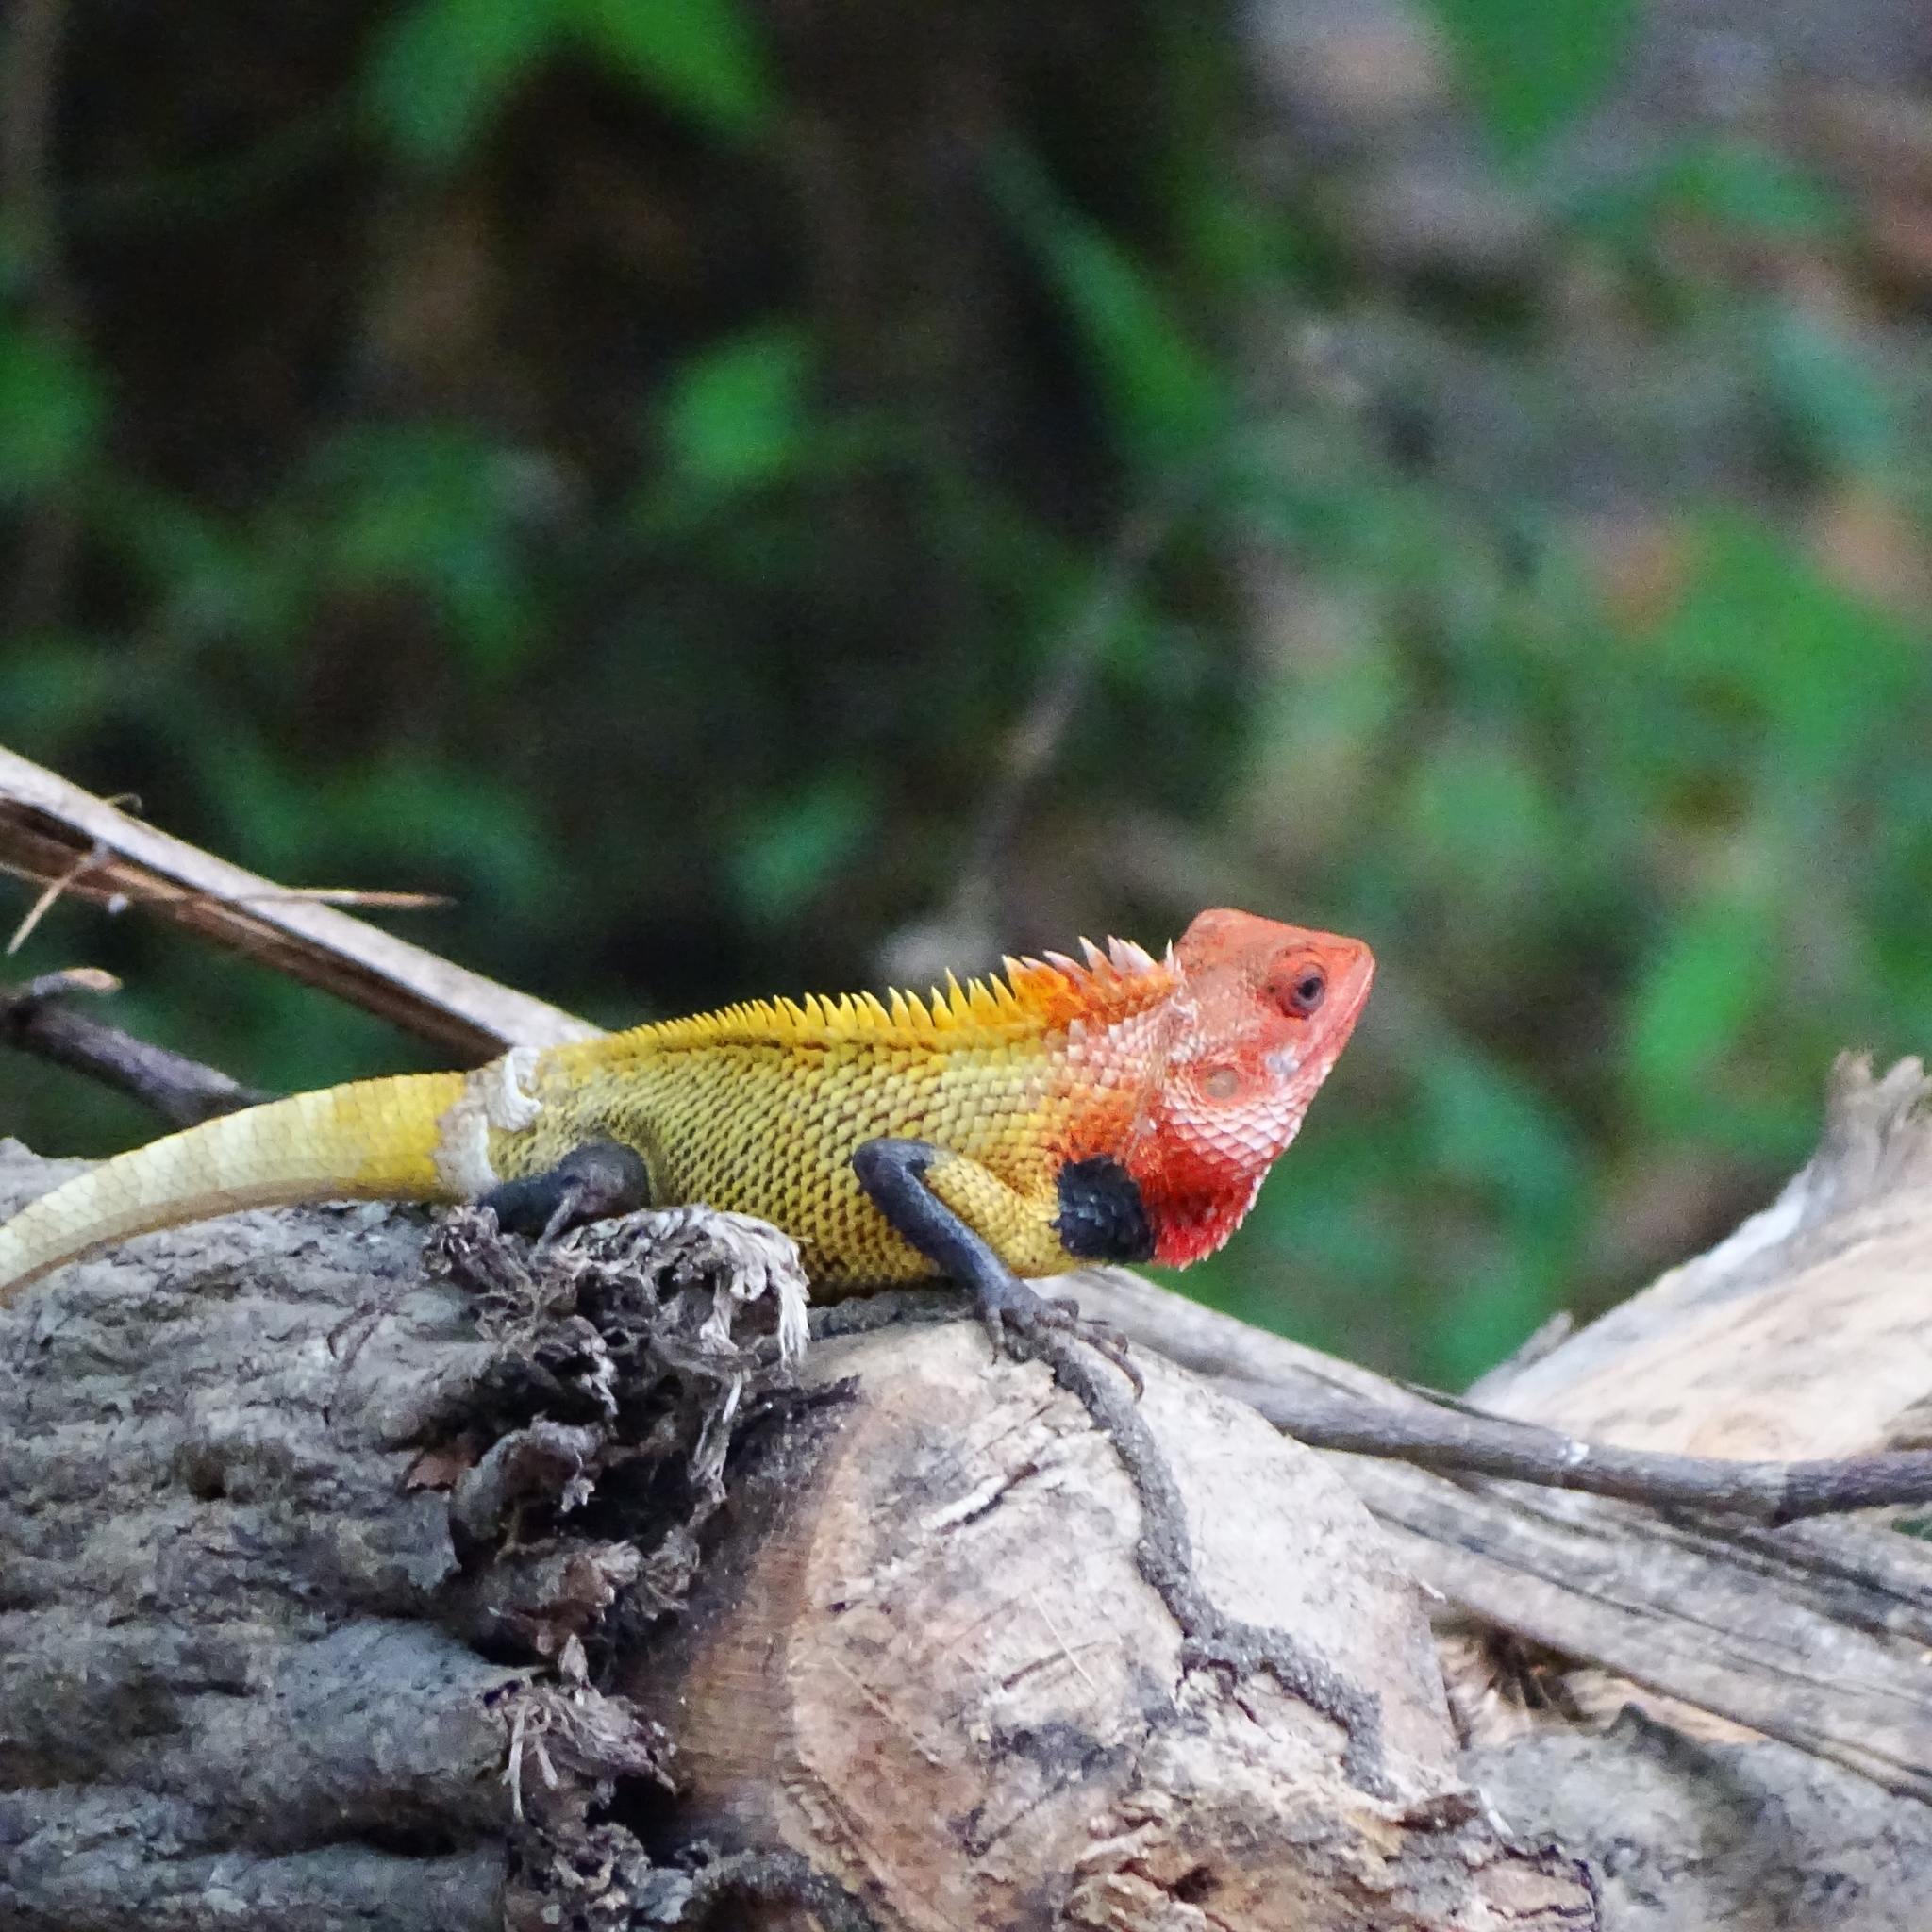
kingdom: Animalia
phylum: Chordata
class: Squamata
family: Agamidae
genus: Calotes
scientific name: Calotes versicolor
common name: Oriental garden lizard
